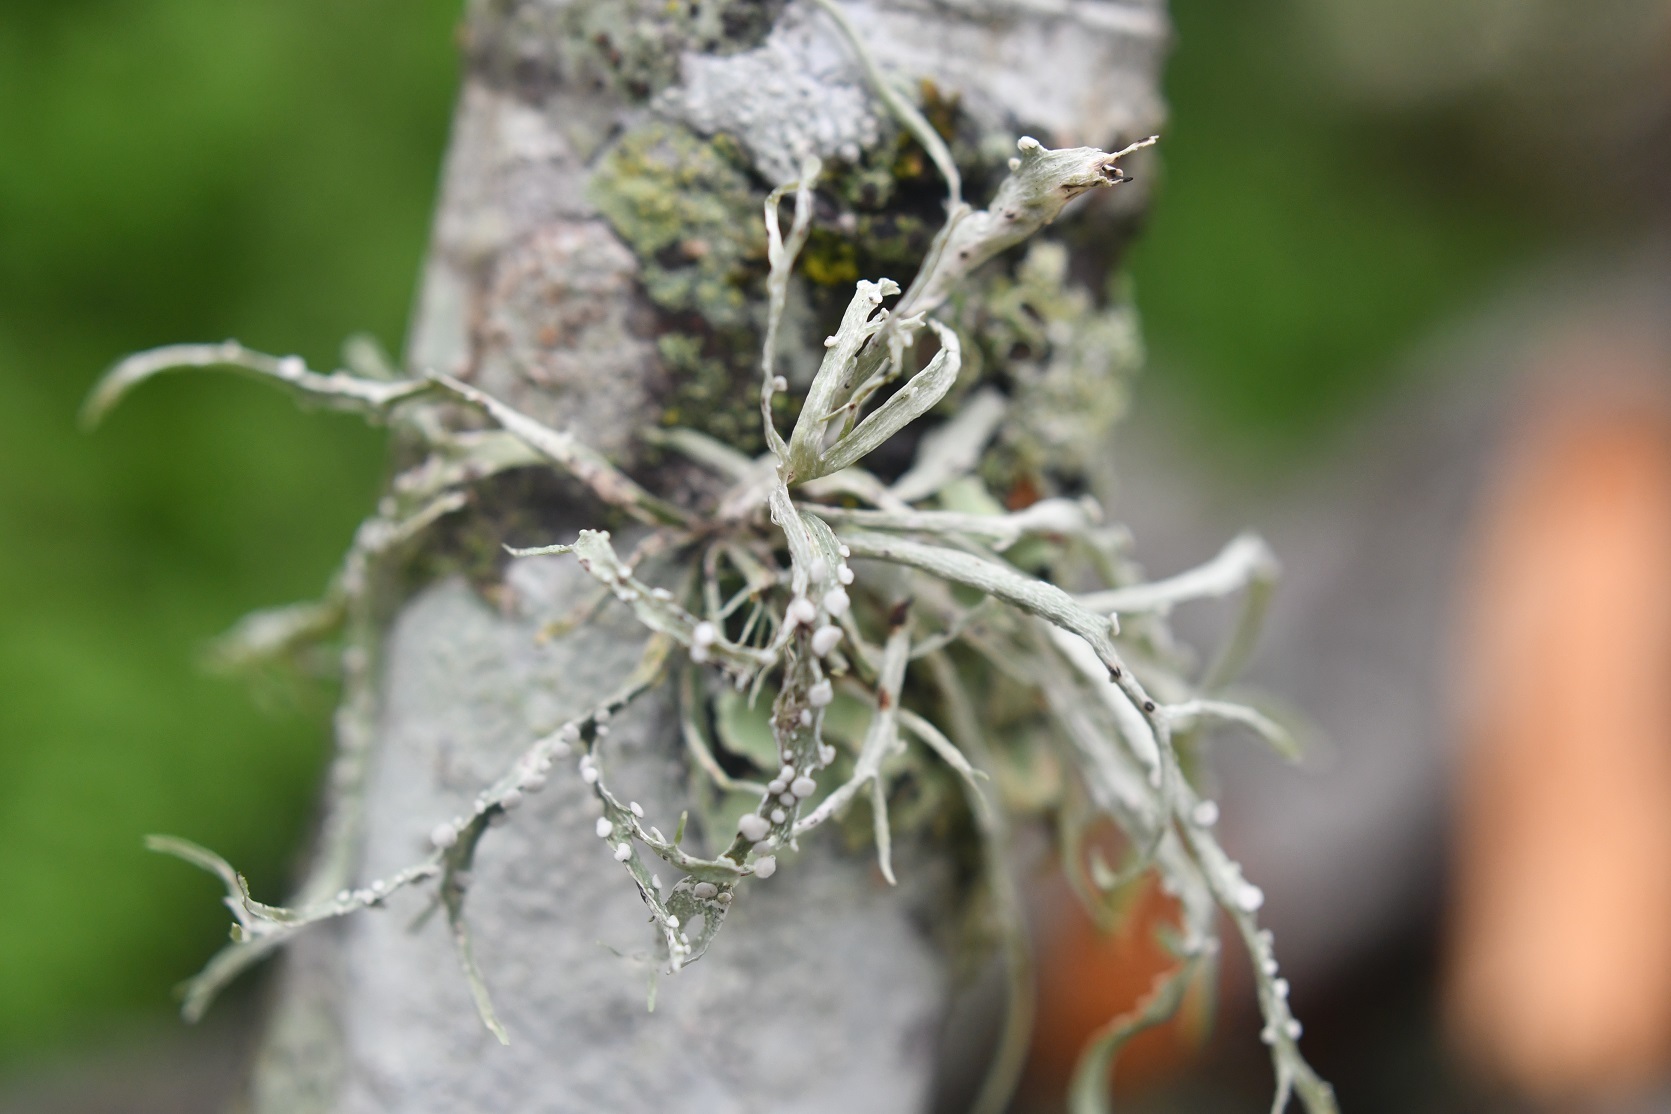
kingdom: Fungi
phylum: Ascomycota
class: Lecanoromycetes
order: Lecanorales
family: Ramalinaceae
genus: Ramalina
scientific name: Ramalina celastri
